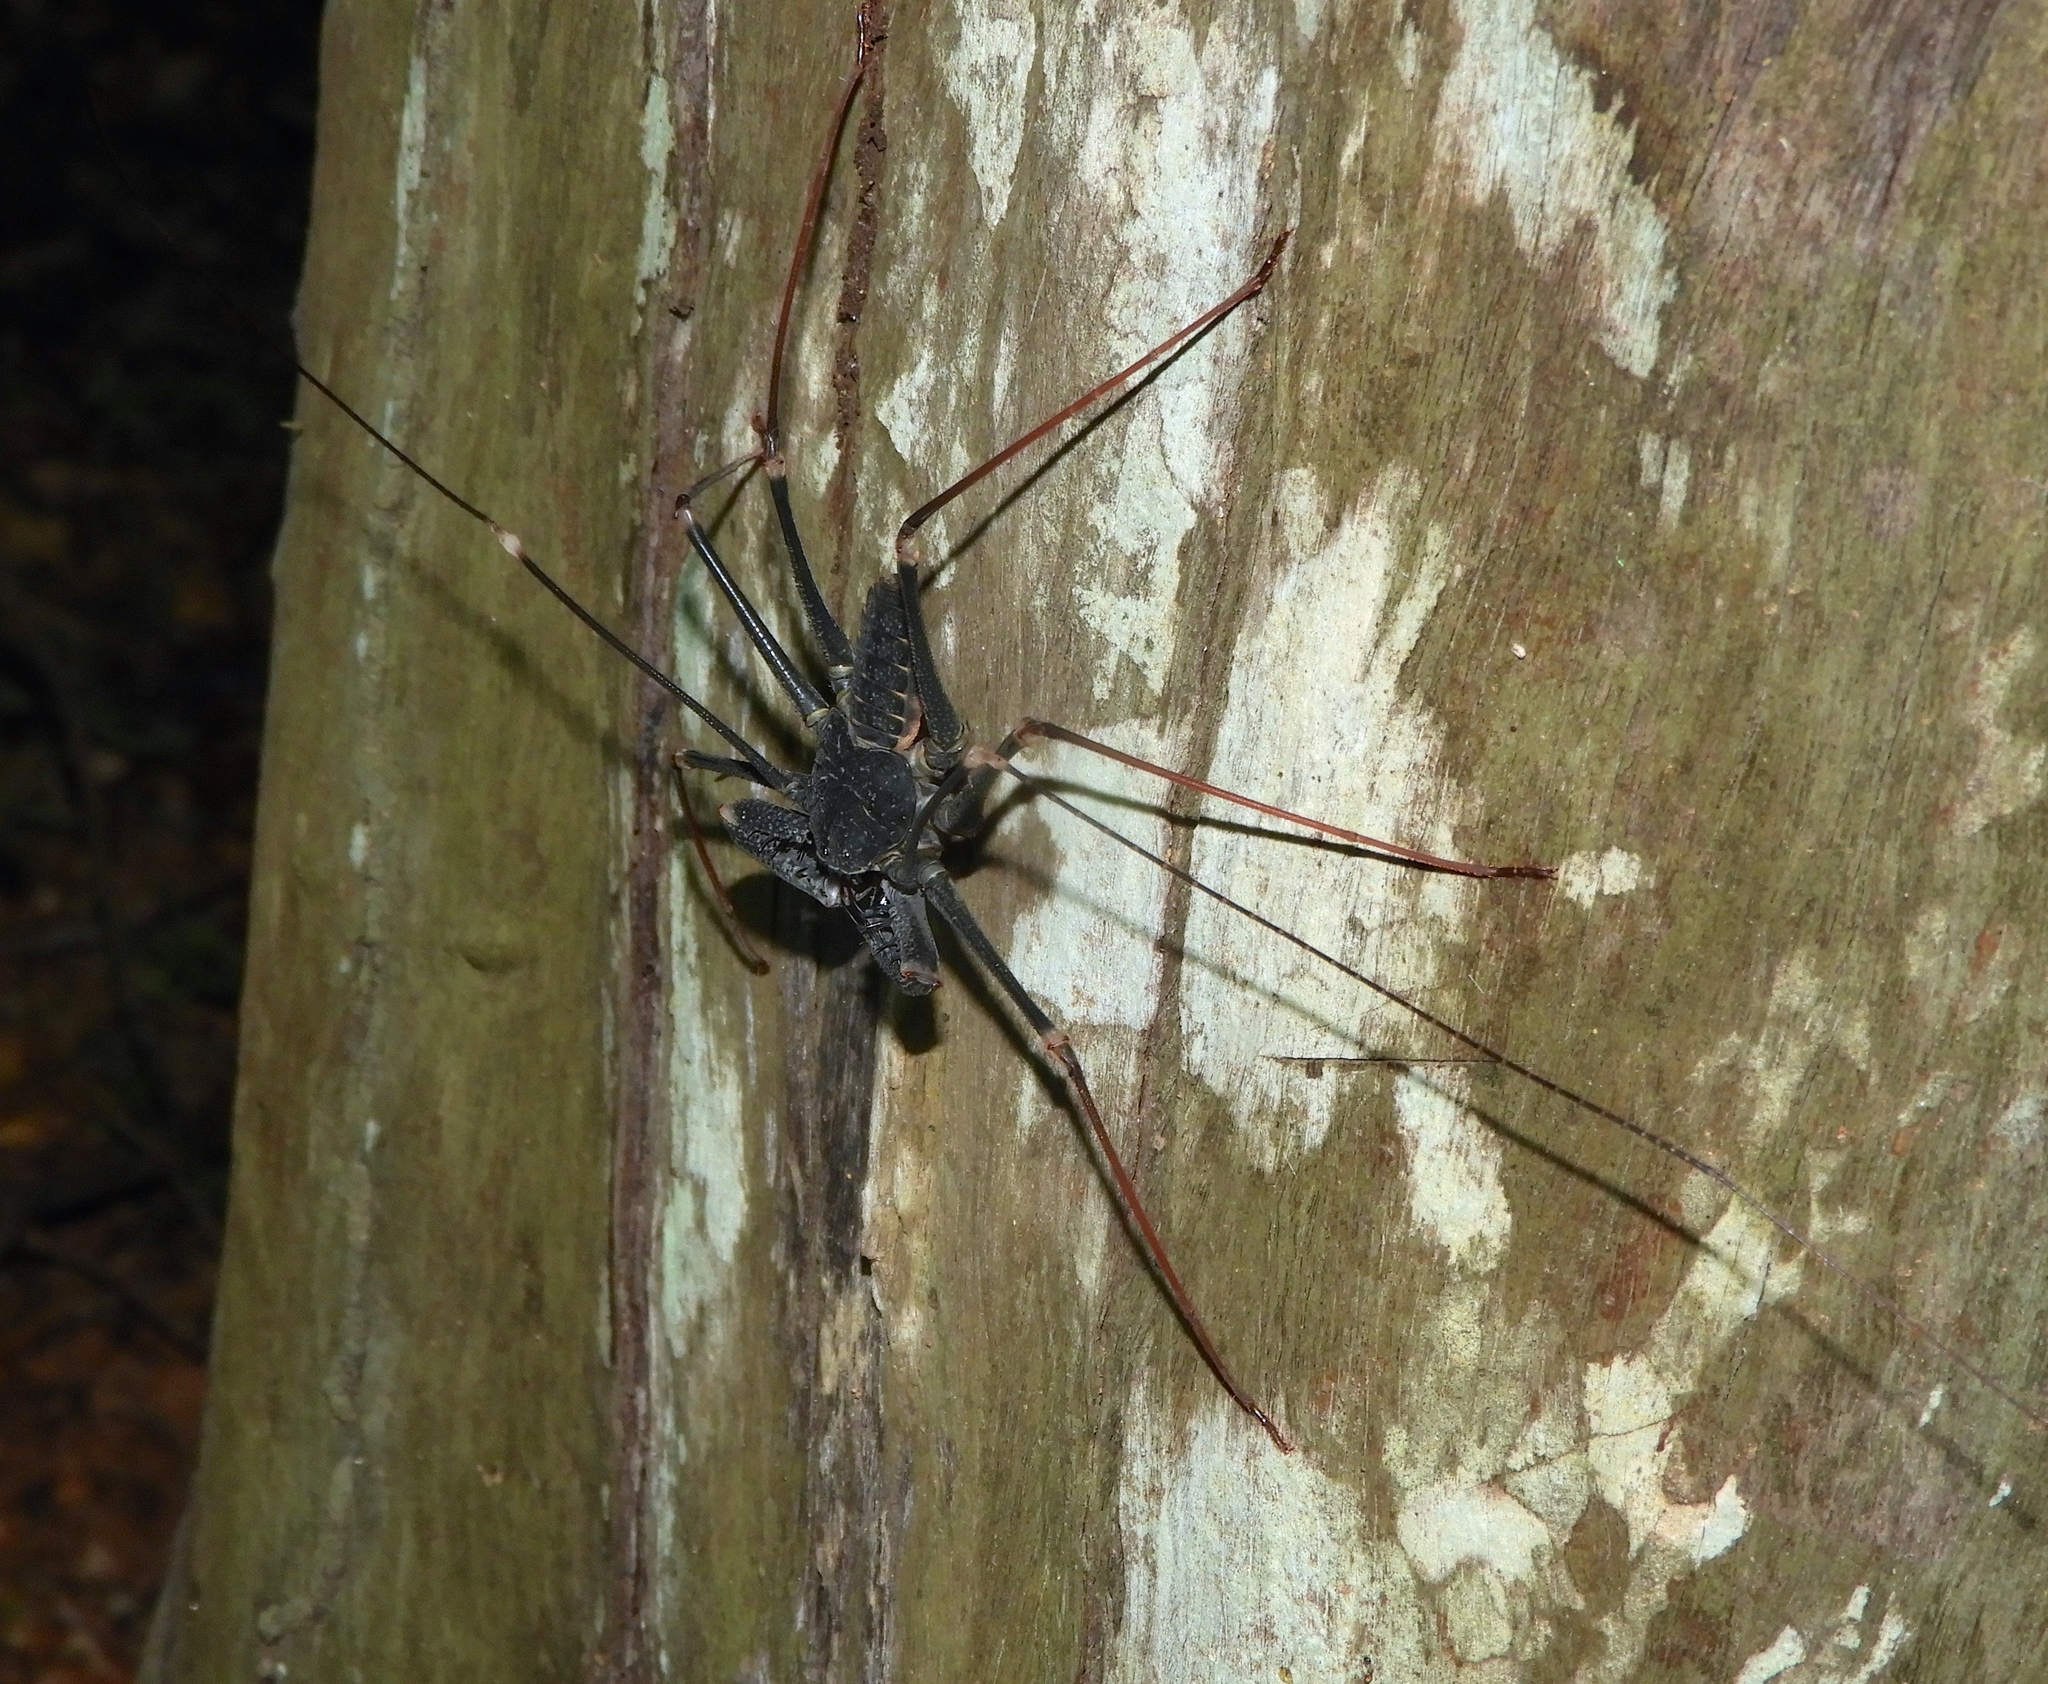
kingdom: Animalia
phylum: Arthropoda
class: Arachnida
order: Amblypygi
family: Phrynidae
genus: Acanthophrynus
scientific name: Acanthophrynus coronatus
